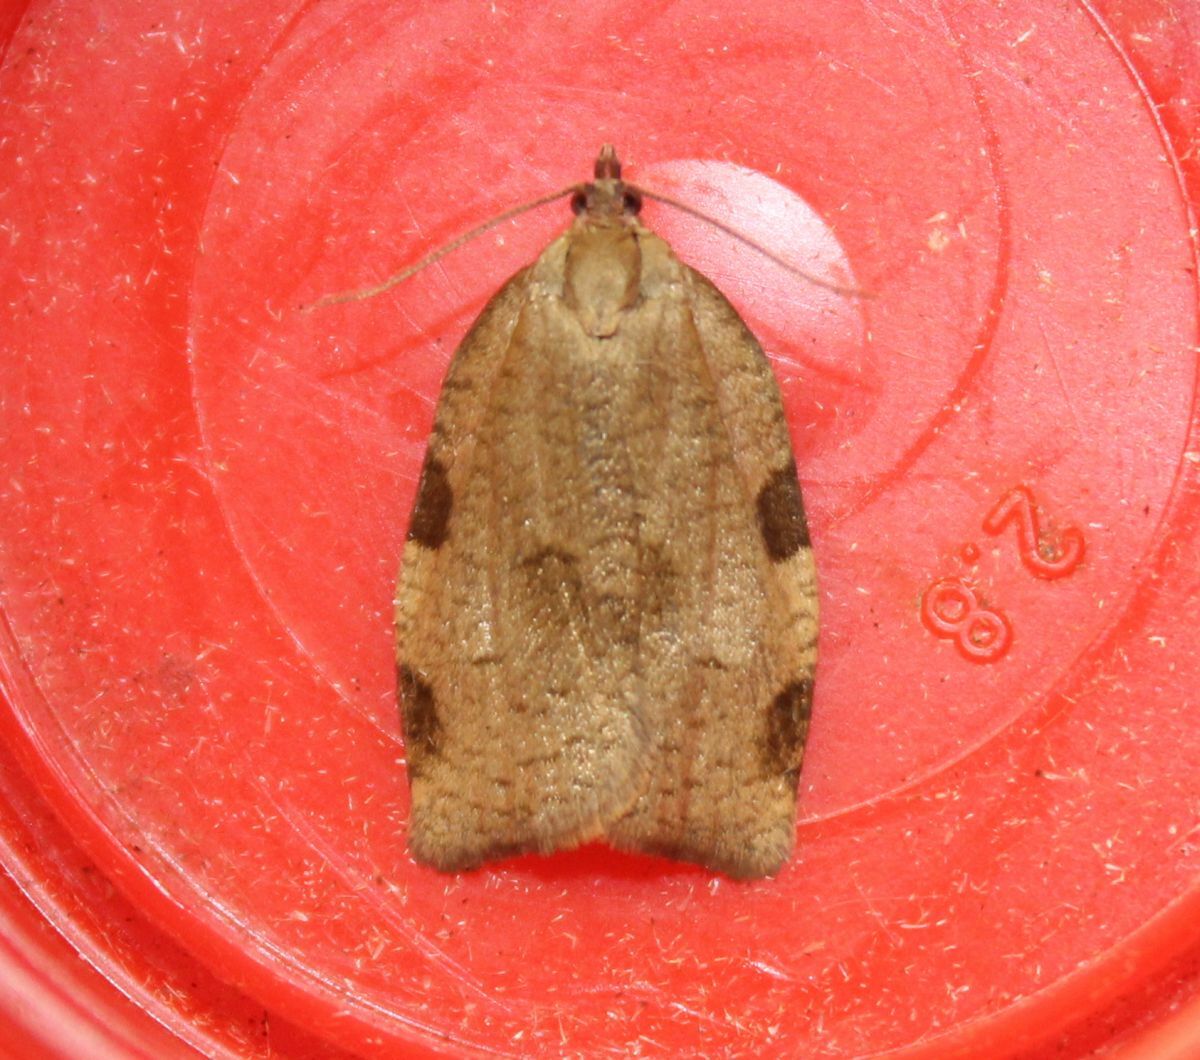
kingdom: Animalia
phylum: Arthropoda
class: Insecta
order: Lepidoptera
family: Tortricidae
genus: Lozotaenia
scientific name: Lozotaenia forsterana
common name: Large ivy twist
